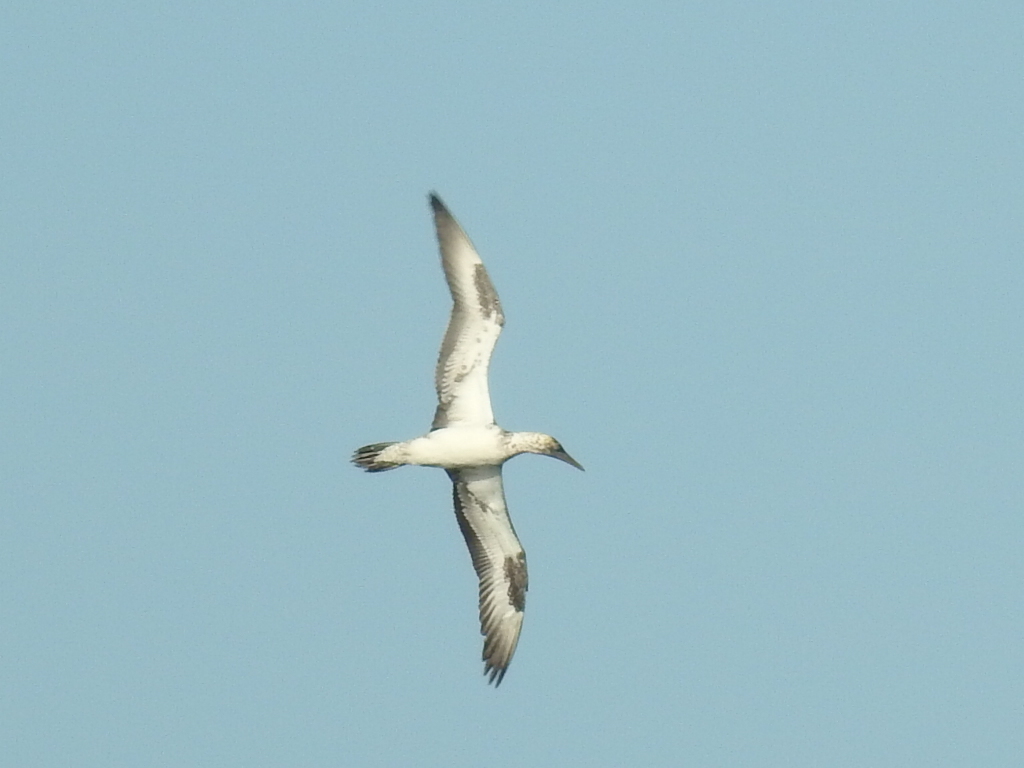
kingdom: Animalia
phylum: Chordata
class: Aves
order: Suliformes
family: Sulidae
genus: Morus
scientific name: Morus serrator
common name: Australasian gannet
